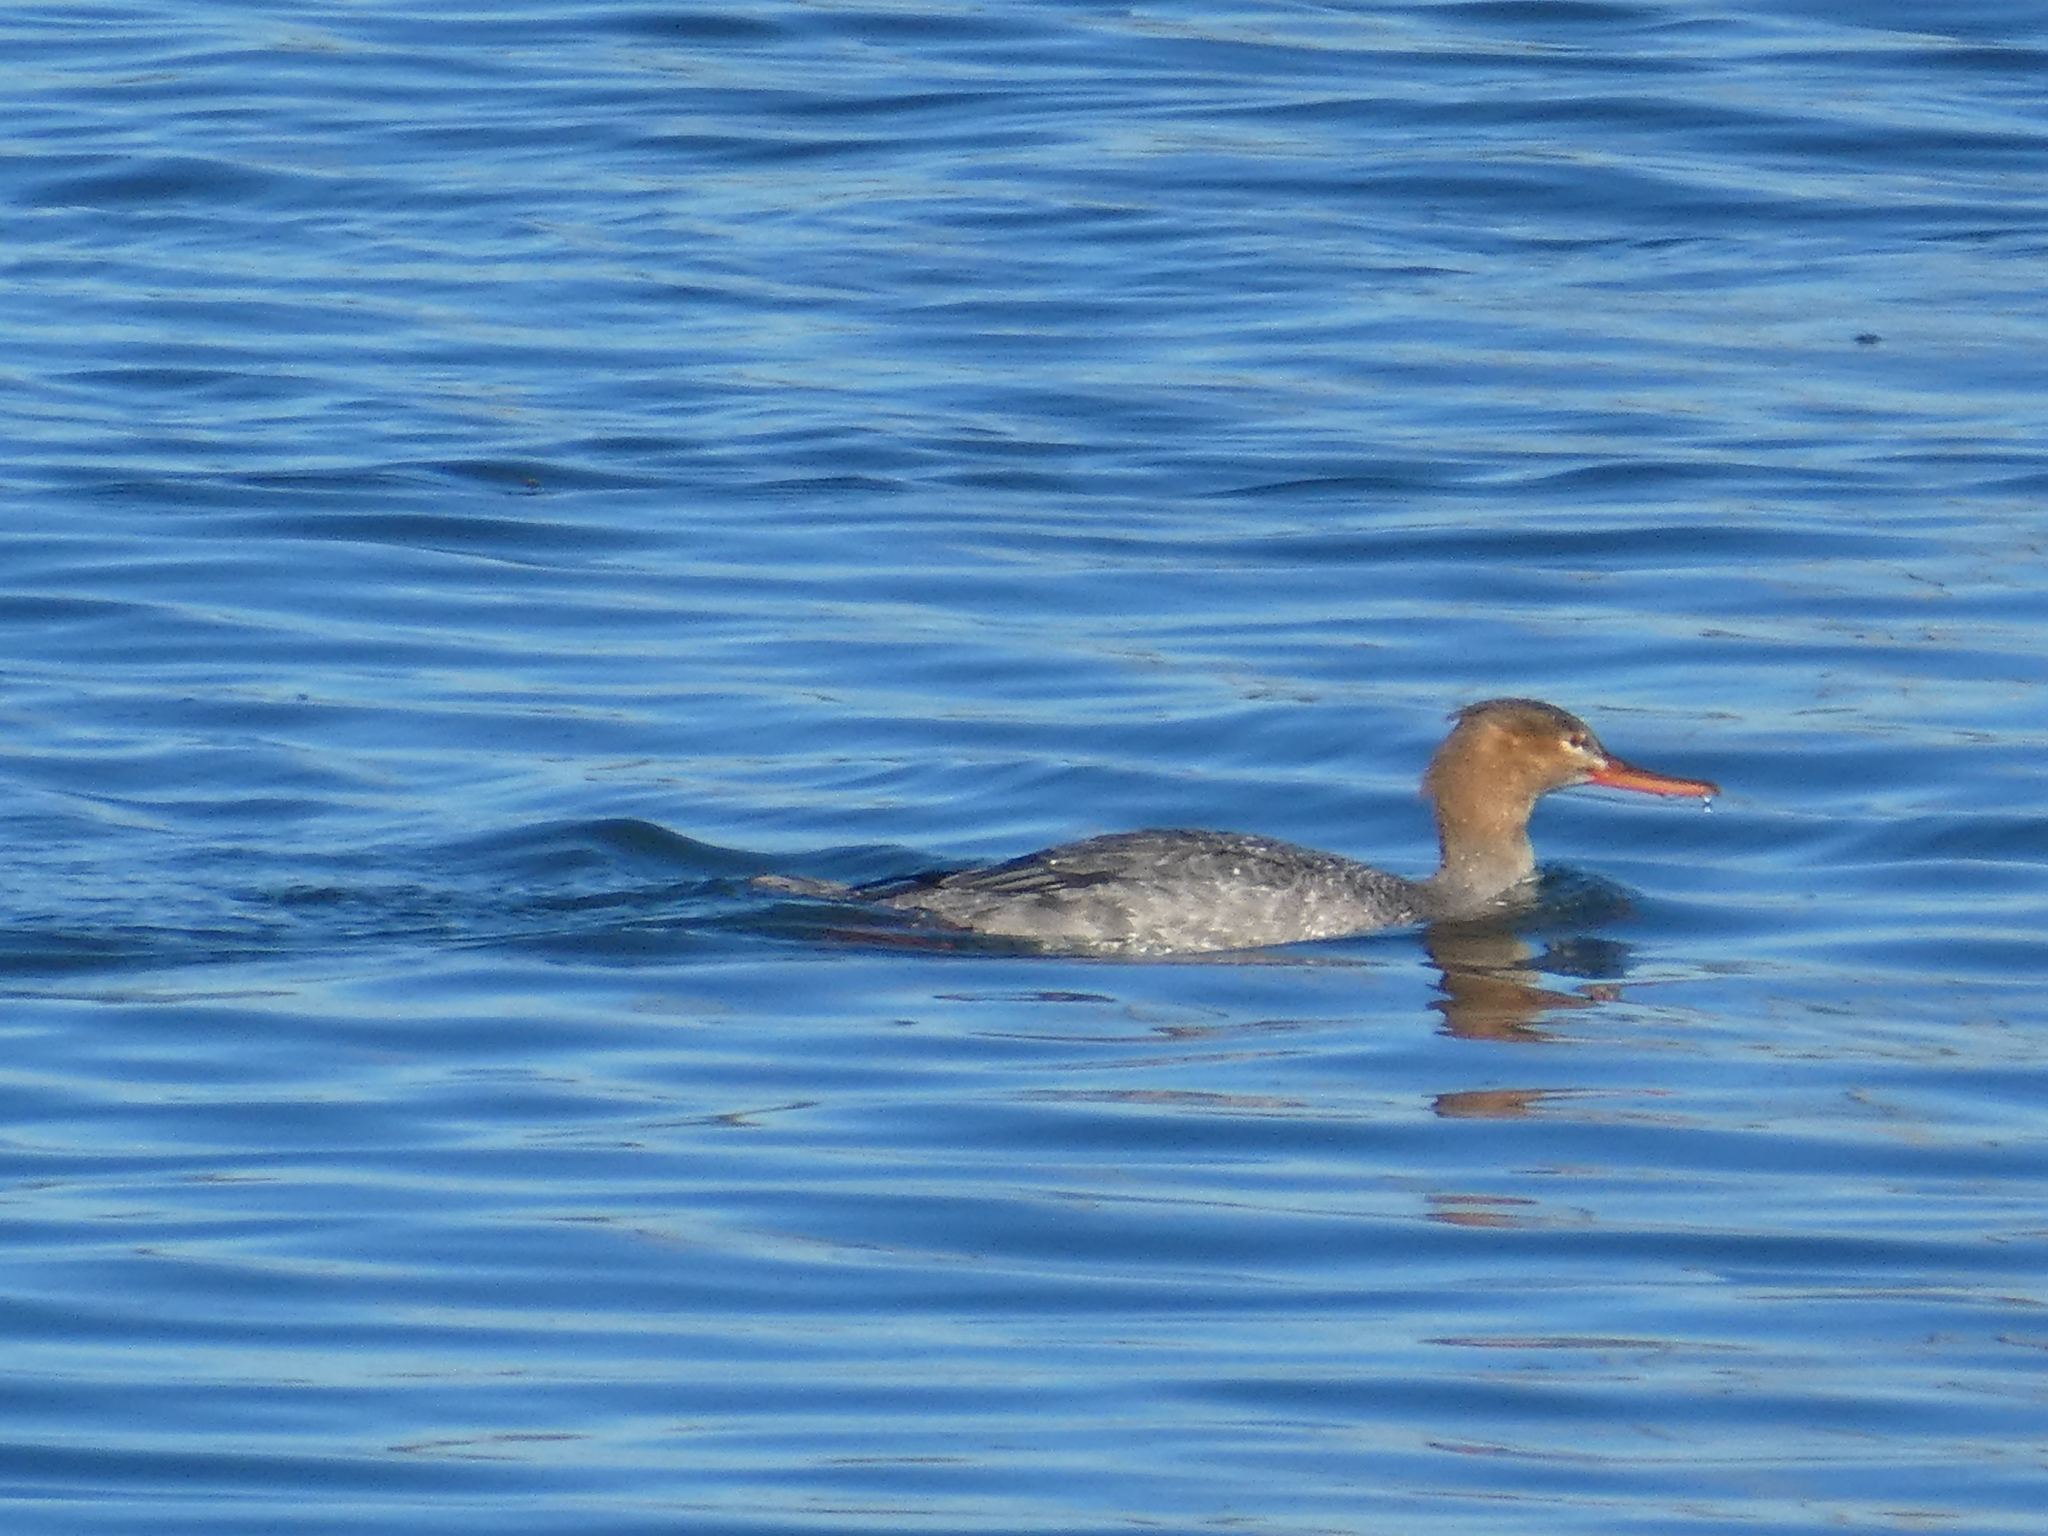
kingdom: Animalia
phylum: Chordata
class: Aves
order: Anseriformes
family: Anatidae
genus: Mergus
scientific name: Mergus serrator
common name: Red-breasted merganser
